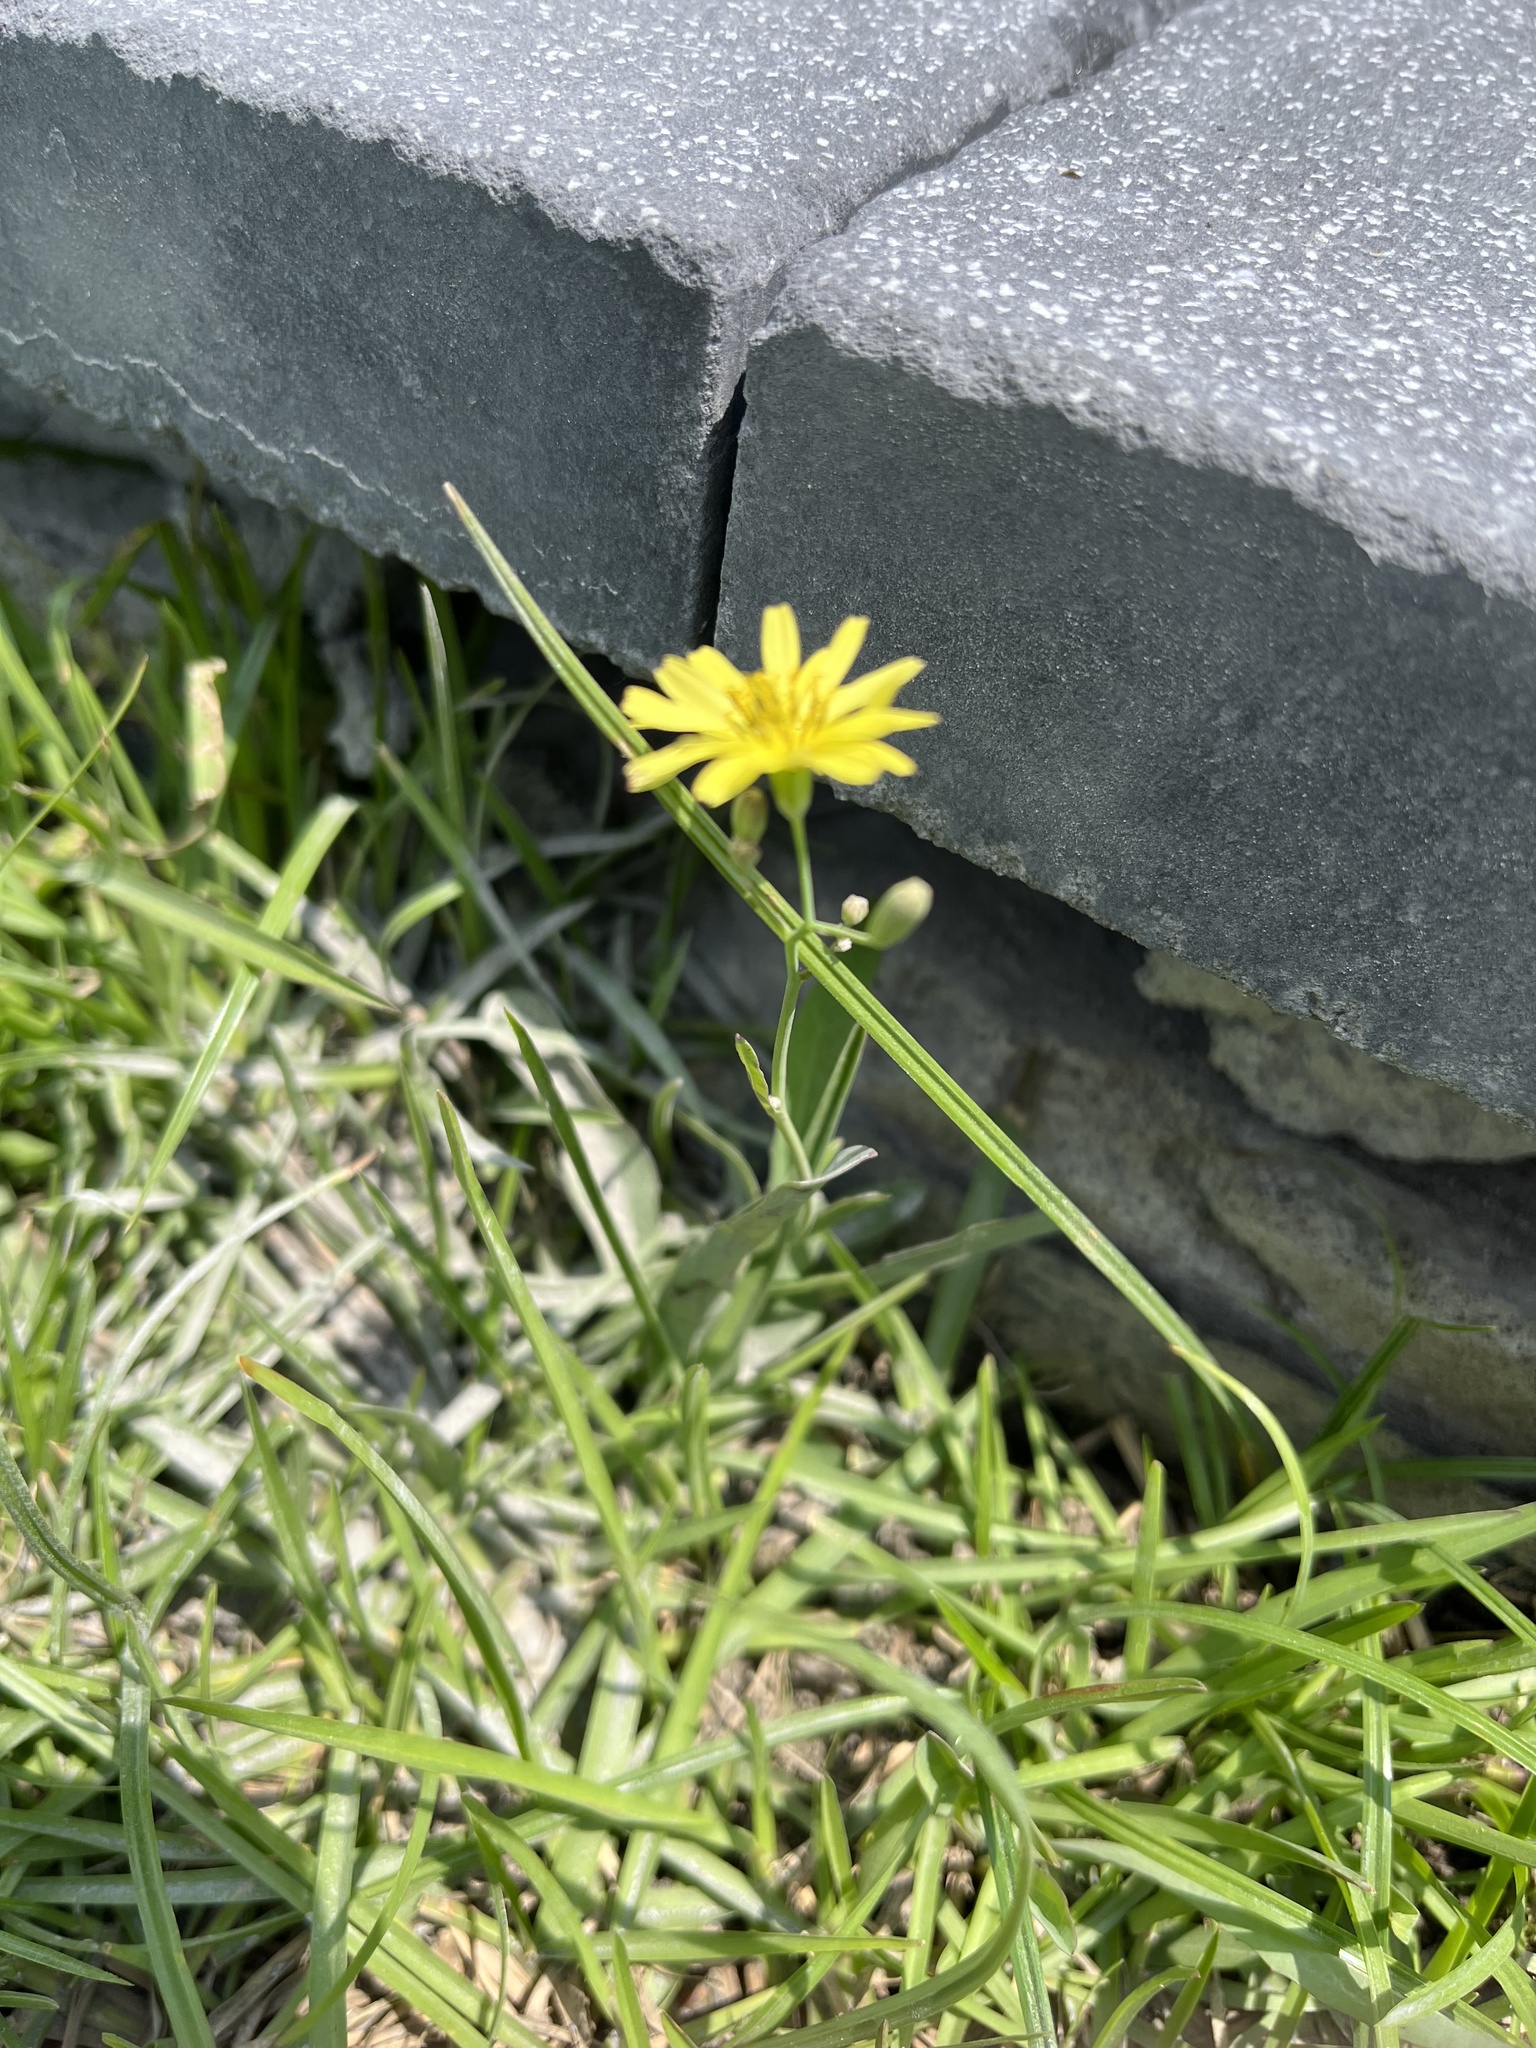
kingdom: Plantae
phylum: Tracheophyta
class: Magnoliopsida
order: Asterales
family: Asteraceae
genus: Ixeris
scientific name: Ixeris chinensis
